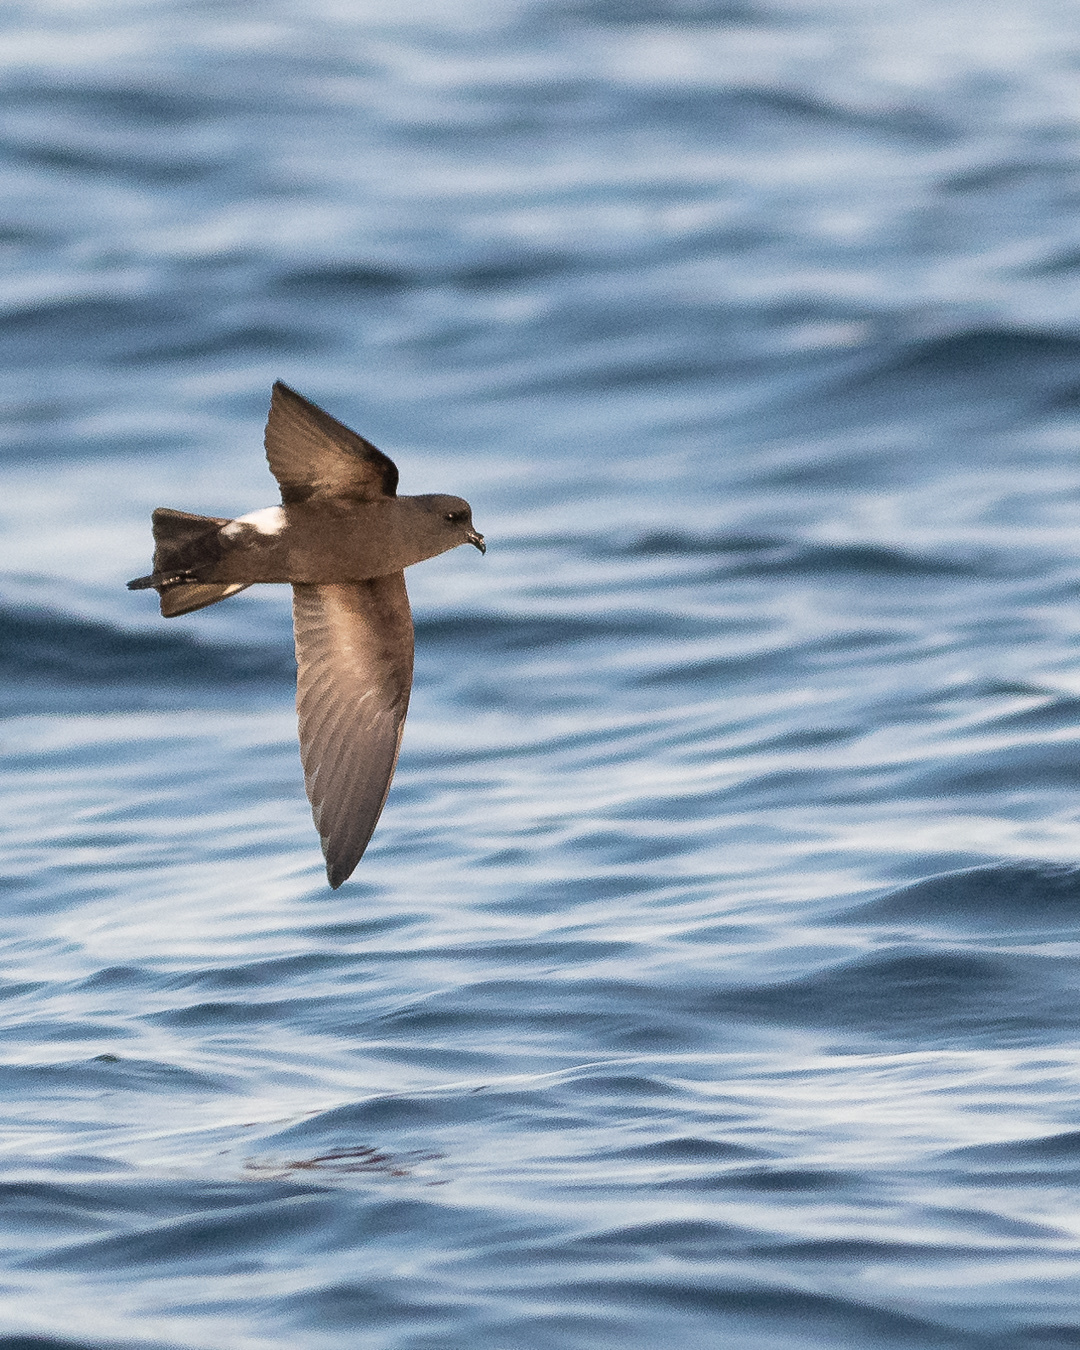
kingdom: Animalia
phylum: Chordata
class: Aves
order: Procellariiformes
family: Hydrobatidae
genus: Oceanites
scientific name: Oceanites oceanicus
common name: Wilson's storm petrel
